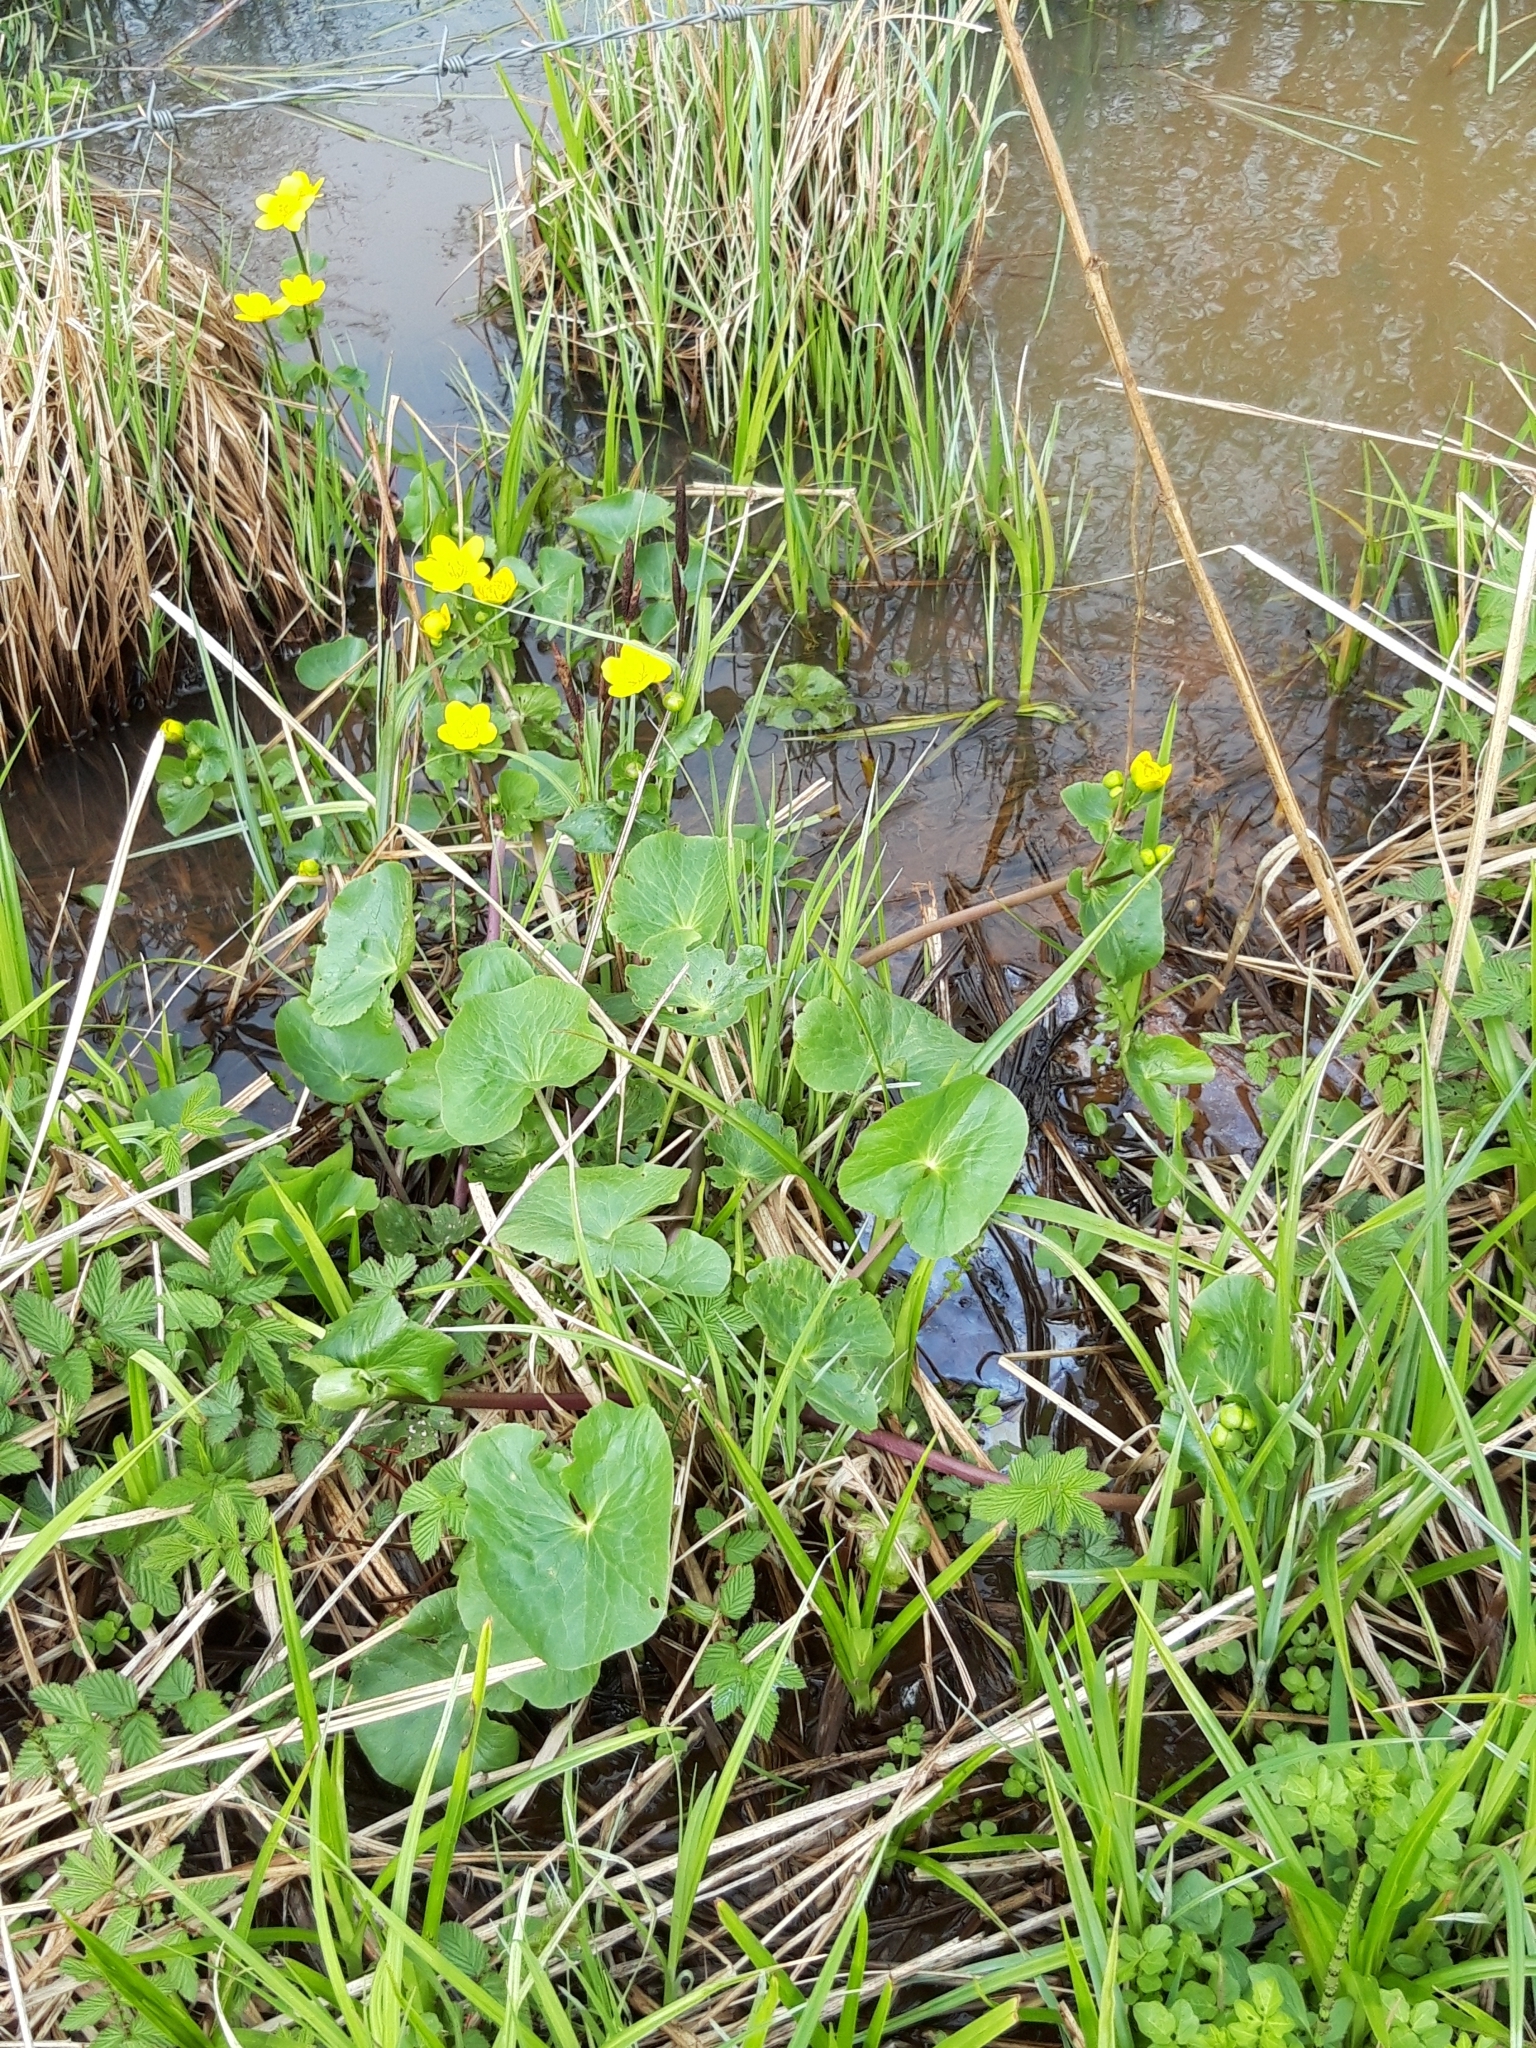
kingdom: Plantae
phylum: Tracheophyta
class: Magnoliopsida
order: Ranunculales
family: Ranunculaceae
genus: Caltha
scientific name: Caltha palustris
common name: Marsh marigold
